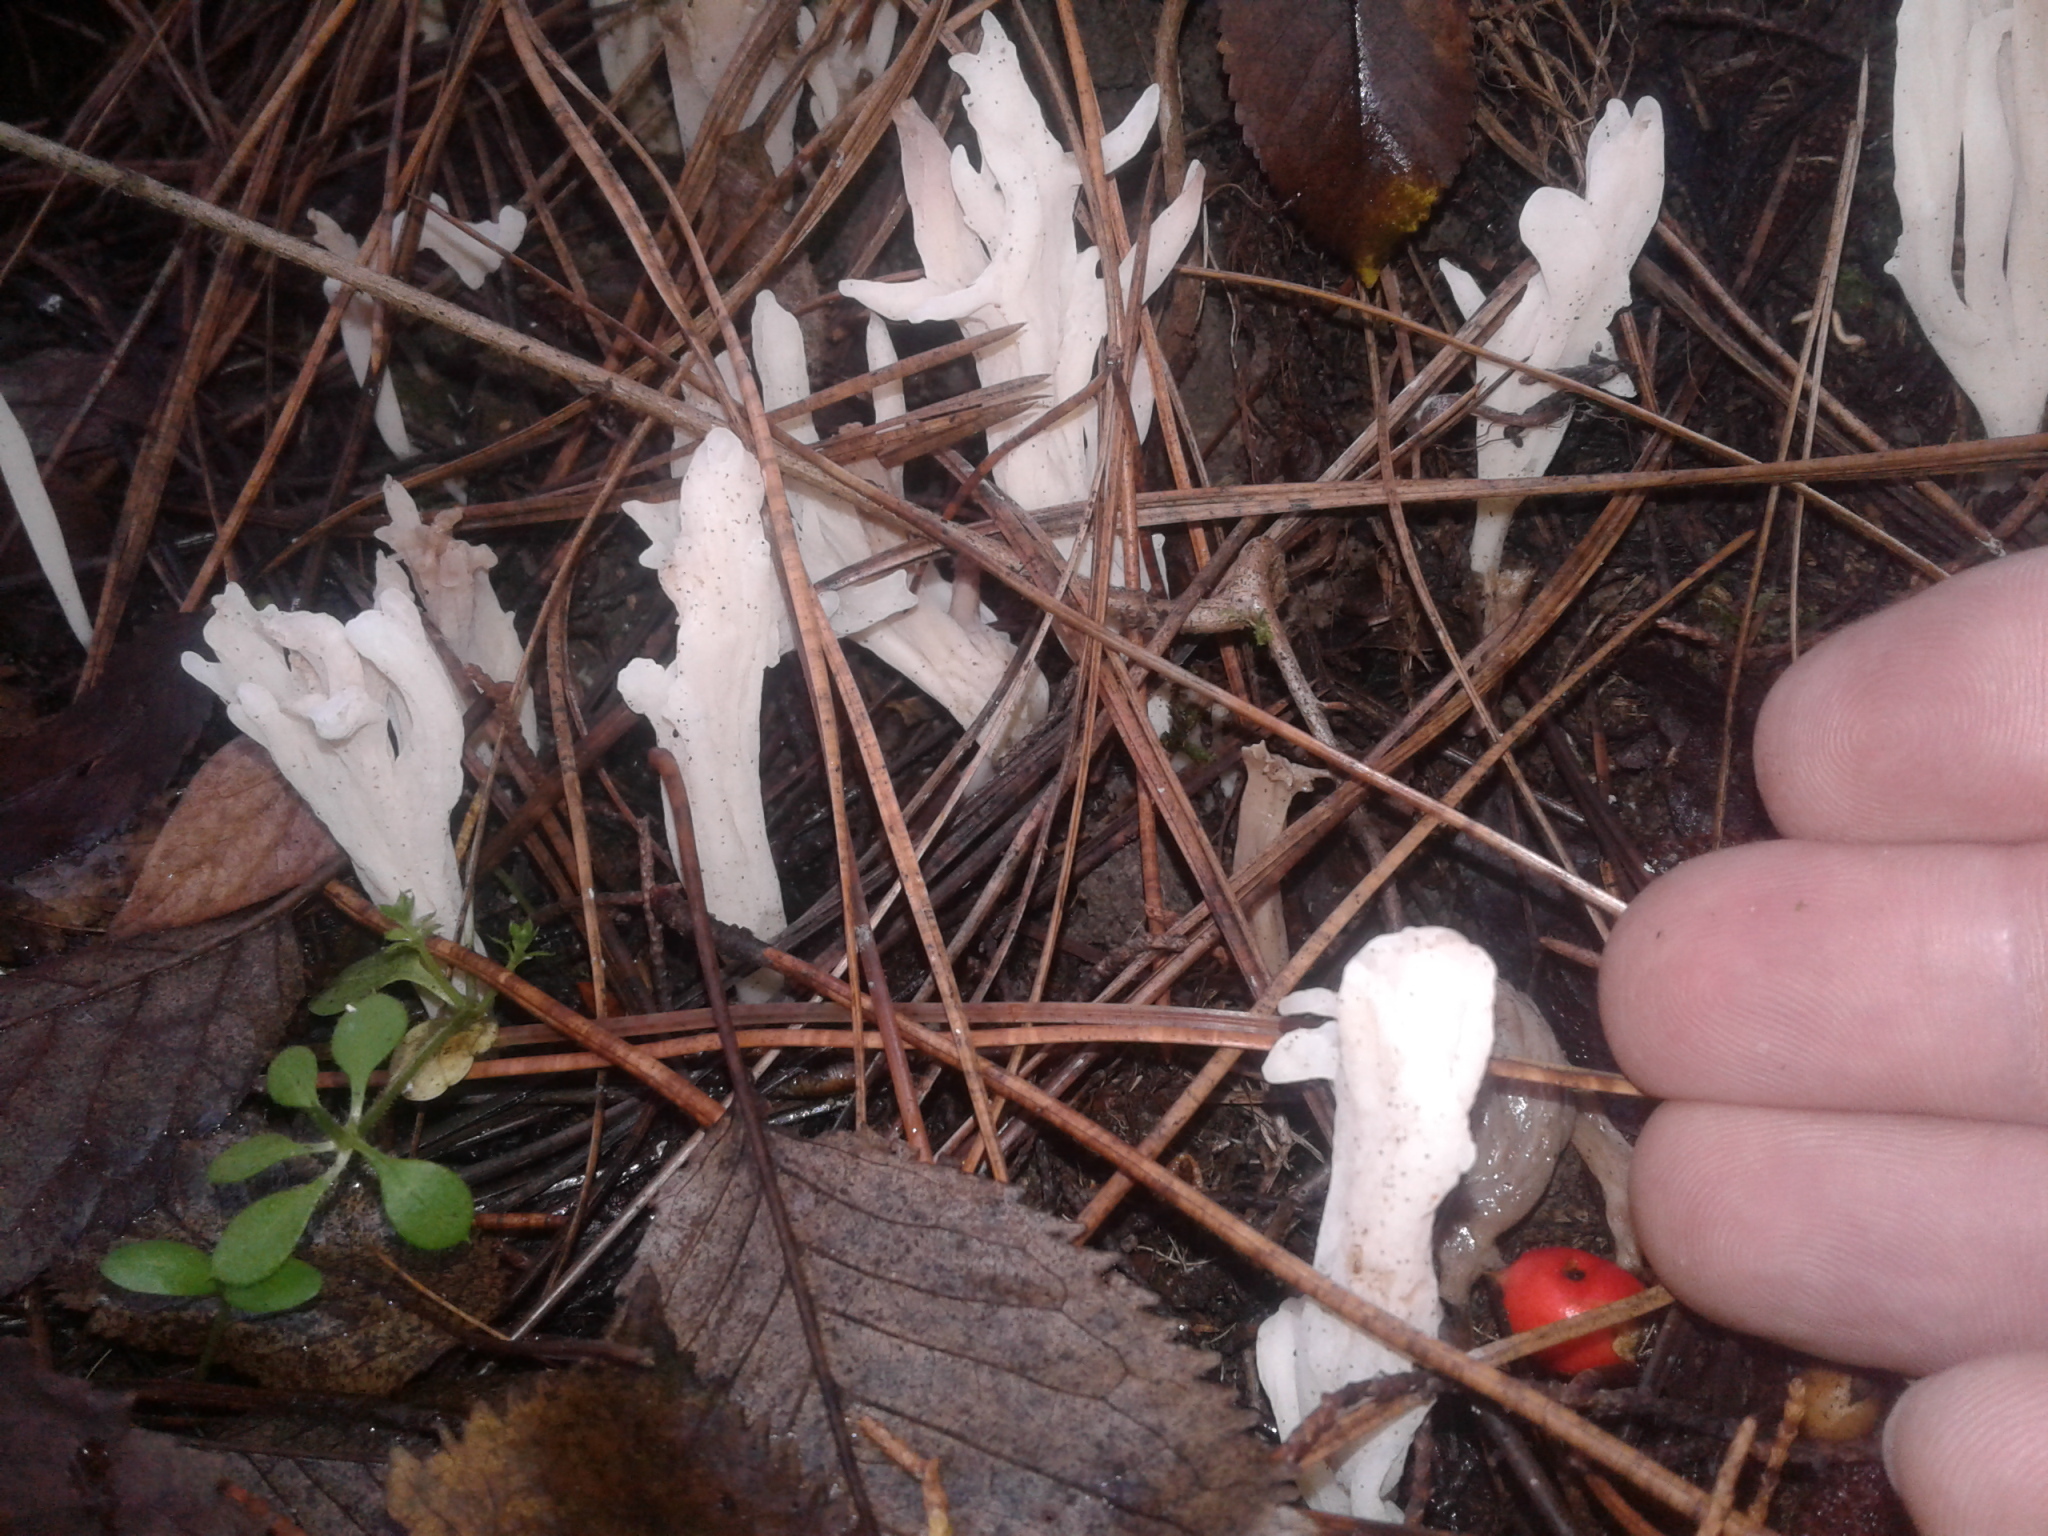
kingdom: Fungi
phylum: Basidiomycota
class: Agaricomycetes
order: Cantharellales
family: Hydnaceae
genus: Clavulina
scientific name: Clavulina rugosa
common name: Wrinkled club
